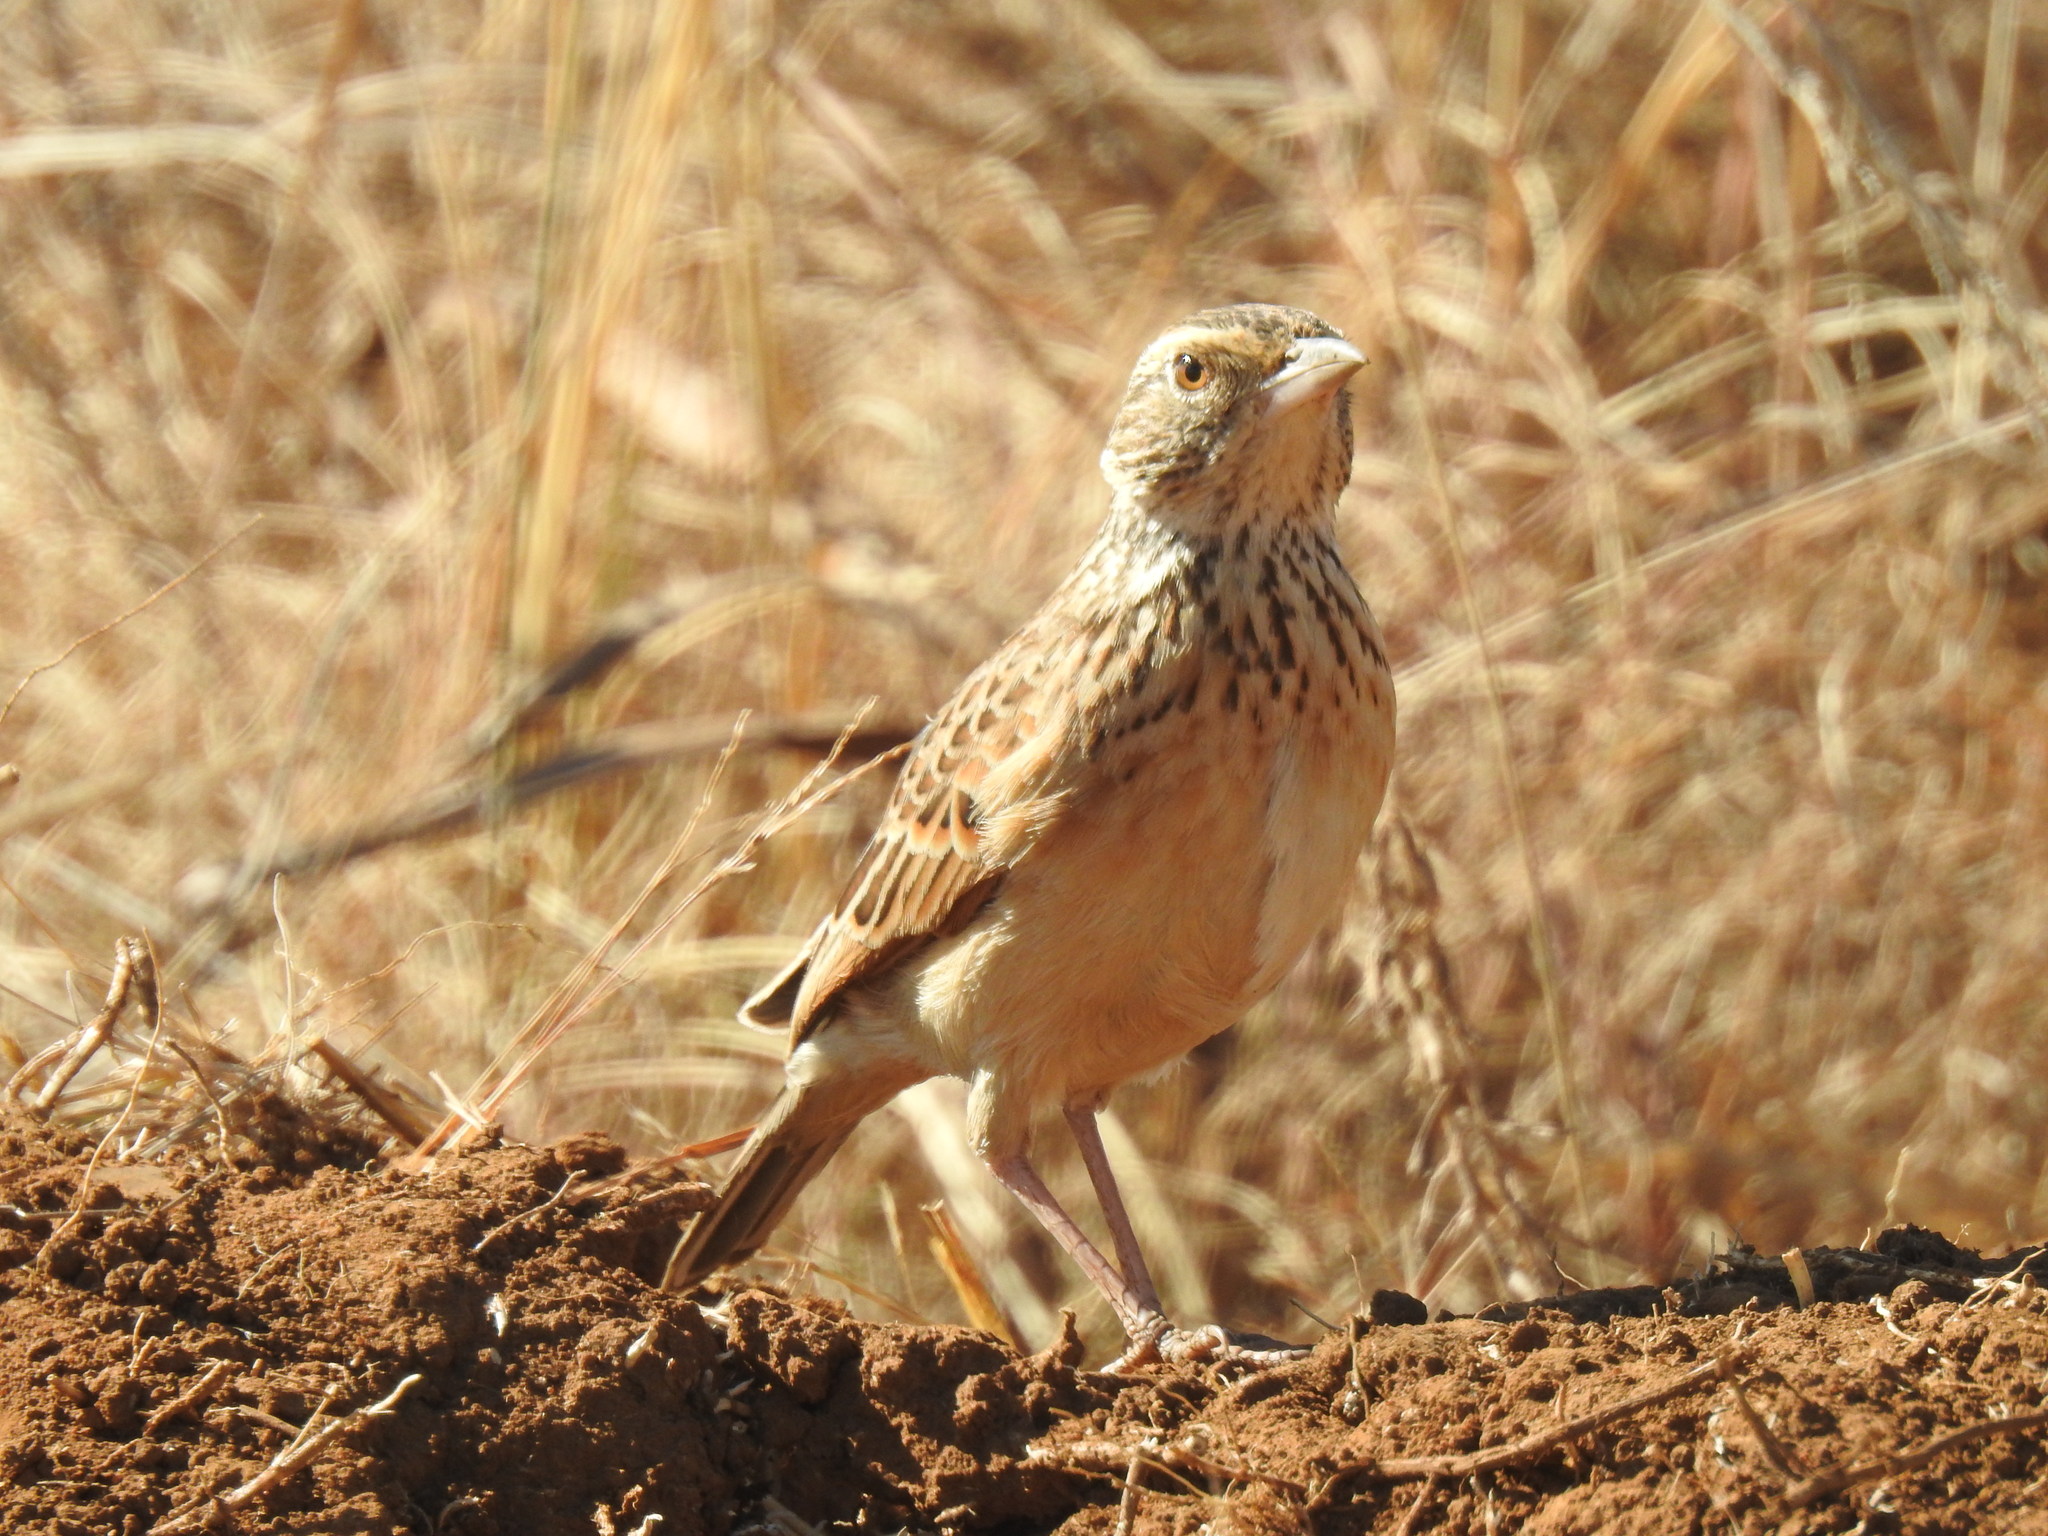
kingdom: Animalia
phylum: Chordata
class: Aves
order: Passeriformes
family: Alaudidae
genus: Mirafra
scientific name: Mirafra africana
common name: Rufous-naped lark
